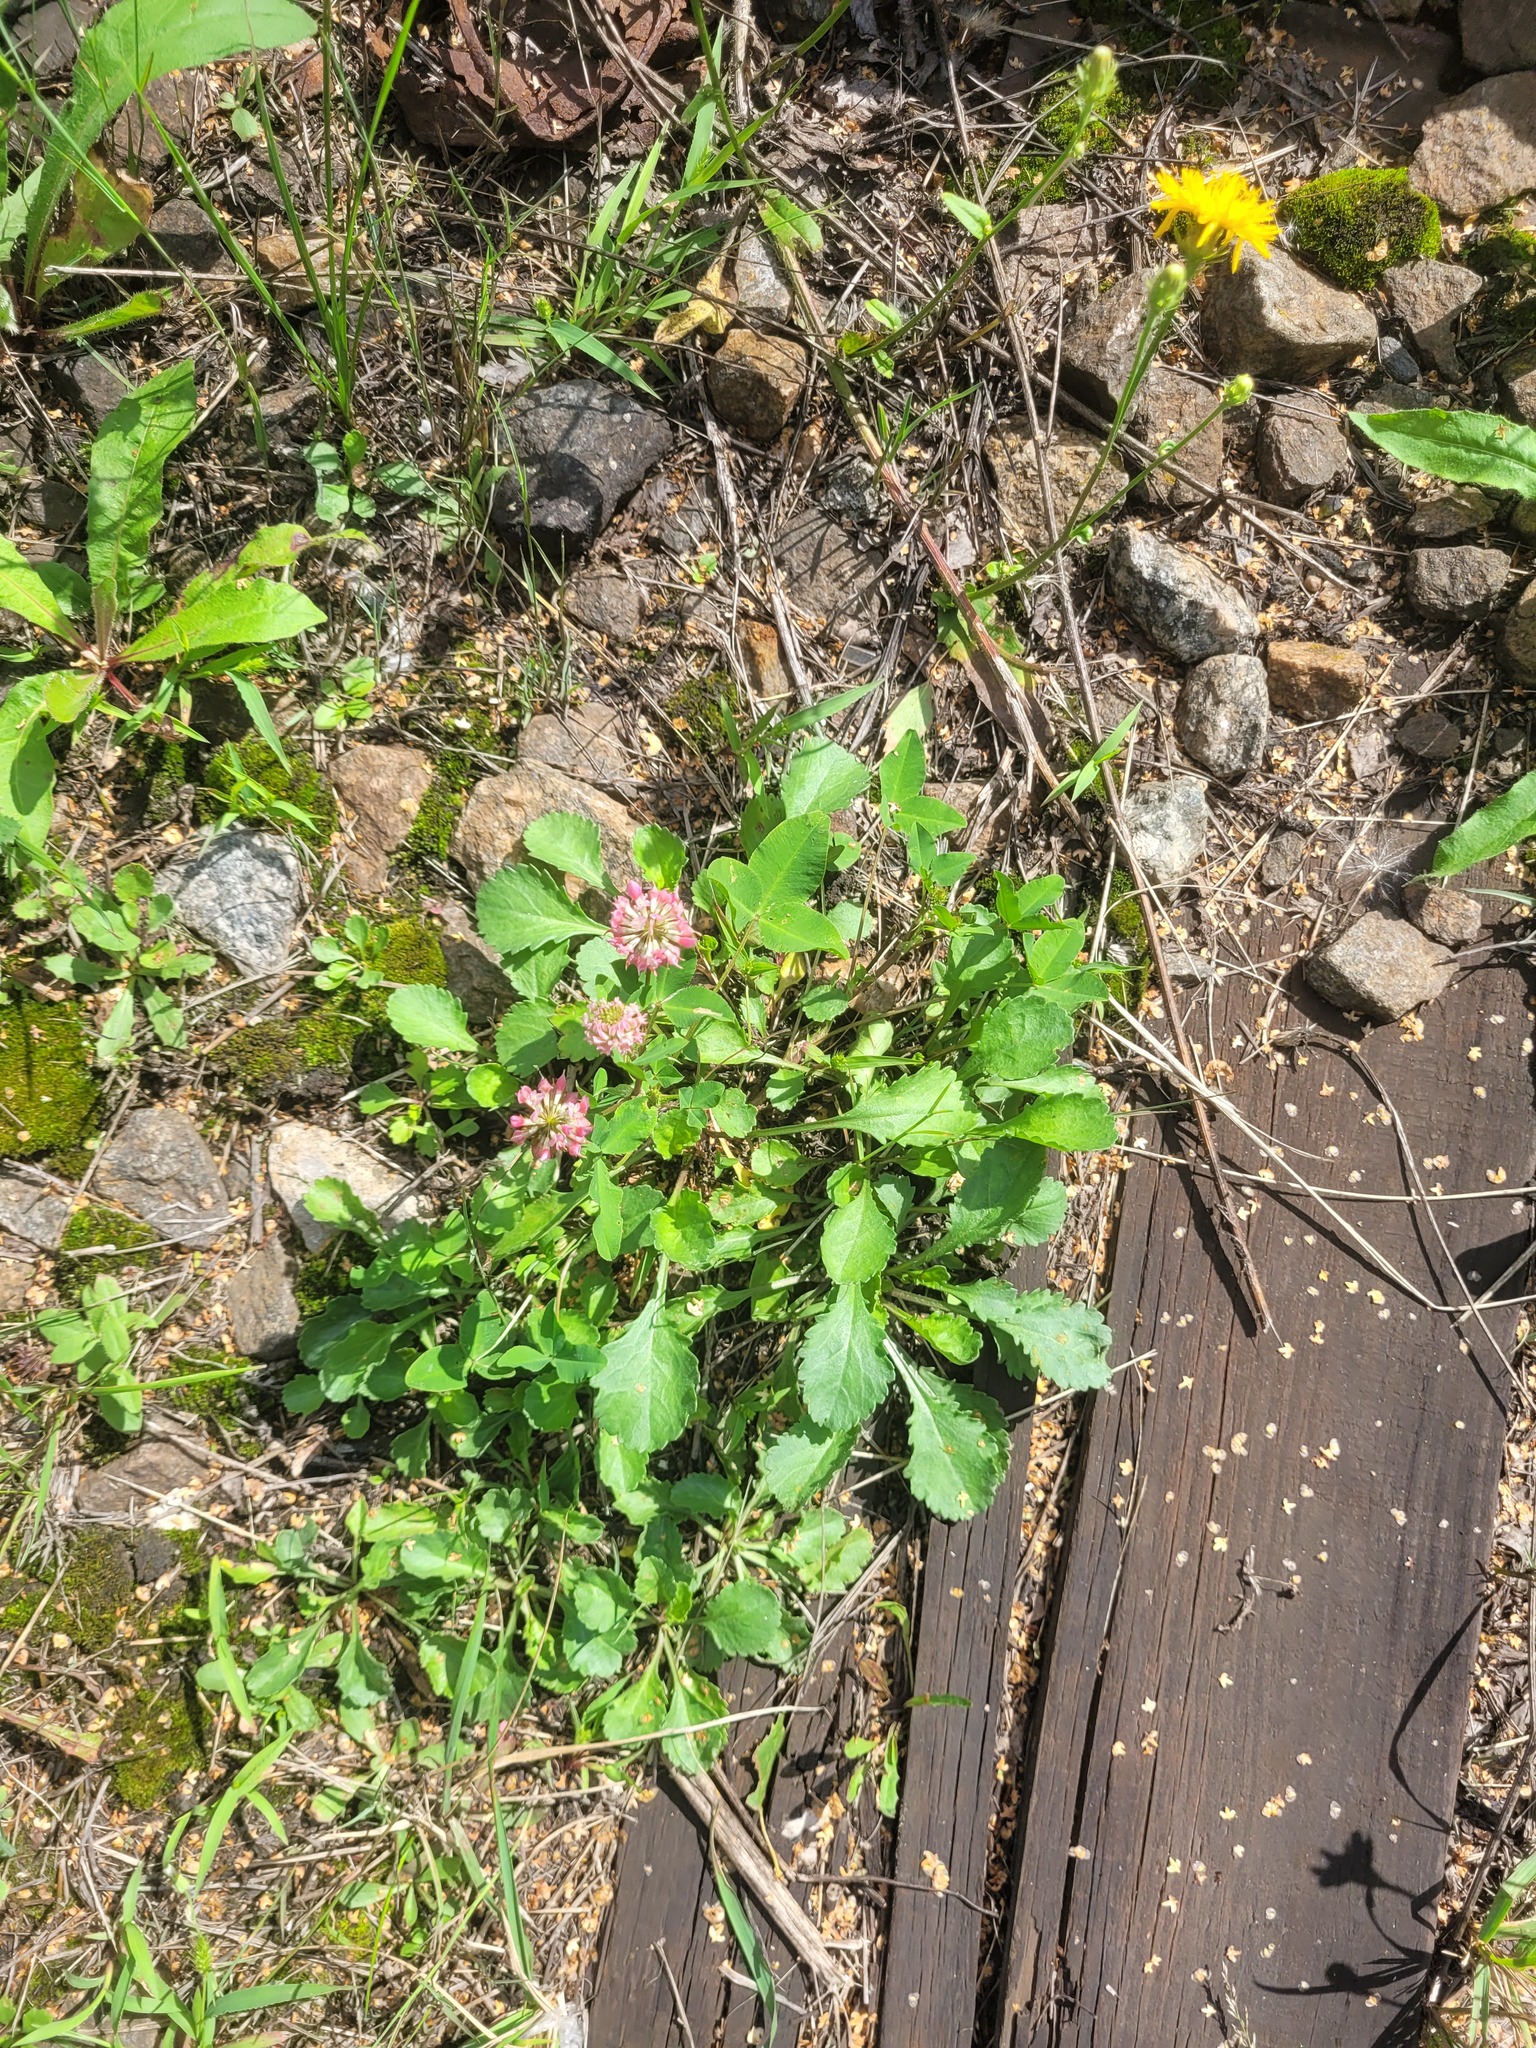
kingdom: Plantae
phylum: Tracheophyta
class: Magnoliopsida
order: Fabales
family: Fabaceae
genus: Trifolium
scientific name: Trifolium hybridum
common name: Alsike clover
